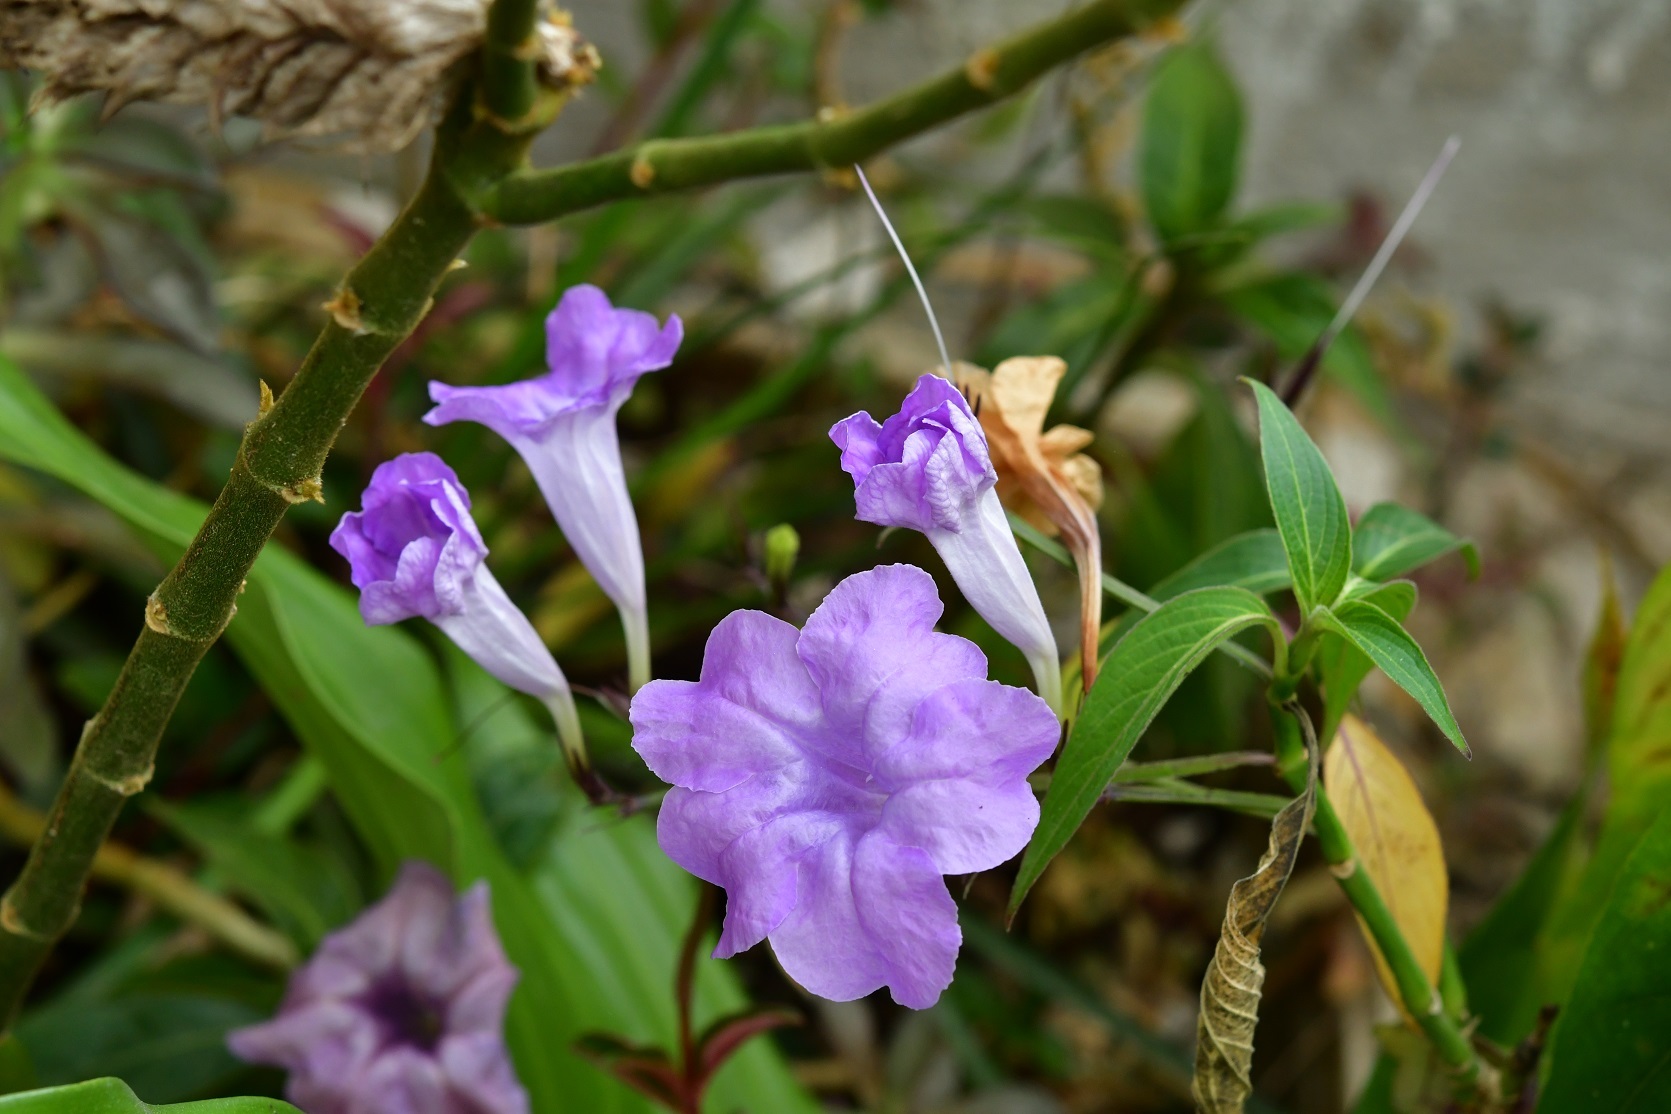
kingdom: Plantae
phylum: Tracheophyta
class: Magnoliopsida
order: Lamiales
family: Acanthaceae
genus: Ruellia
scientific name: Ruellia breedlovei
